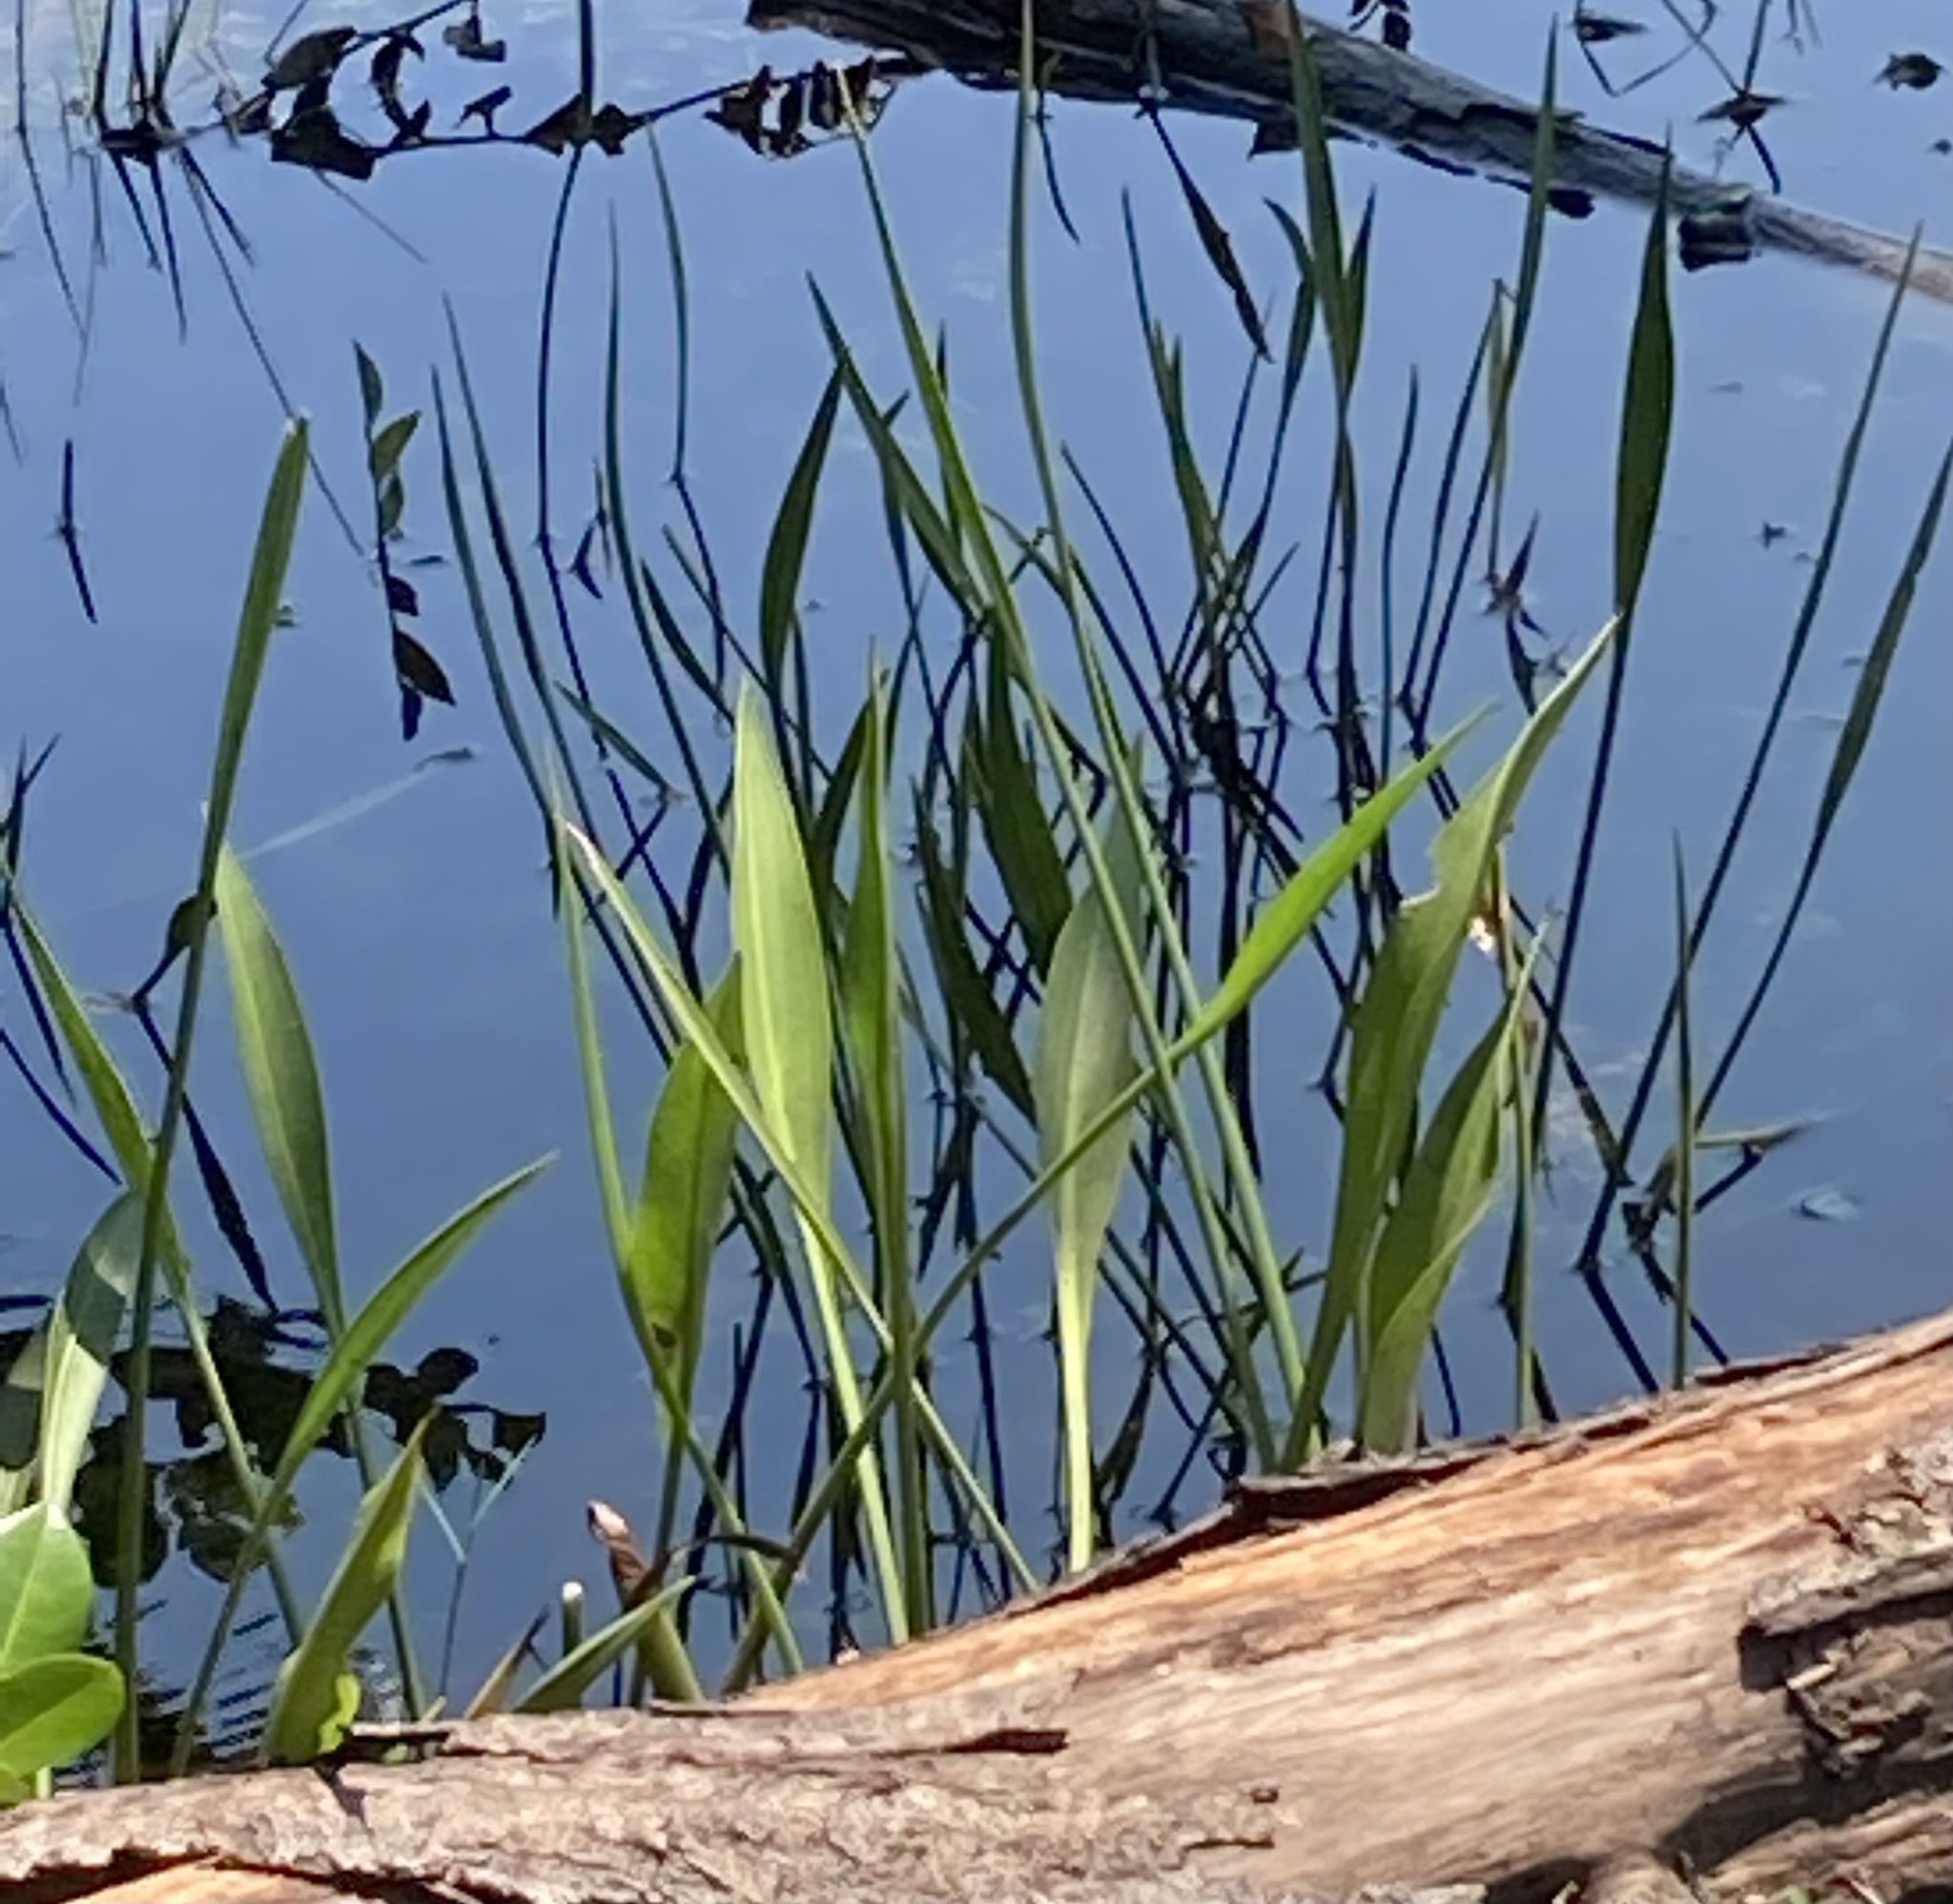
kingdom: Plantae
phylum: Tracheophyta
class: Liliopsida
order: Alismatales
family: Alismataceae
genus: Sagittaria
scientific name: Sagittaria lancifolia
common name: Lance-leaf arrowhead
